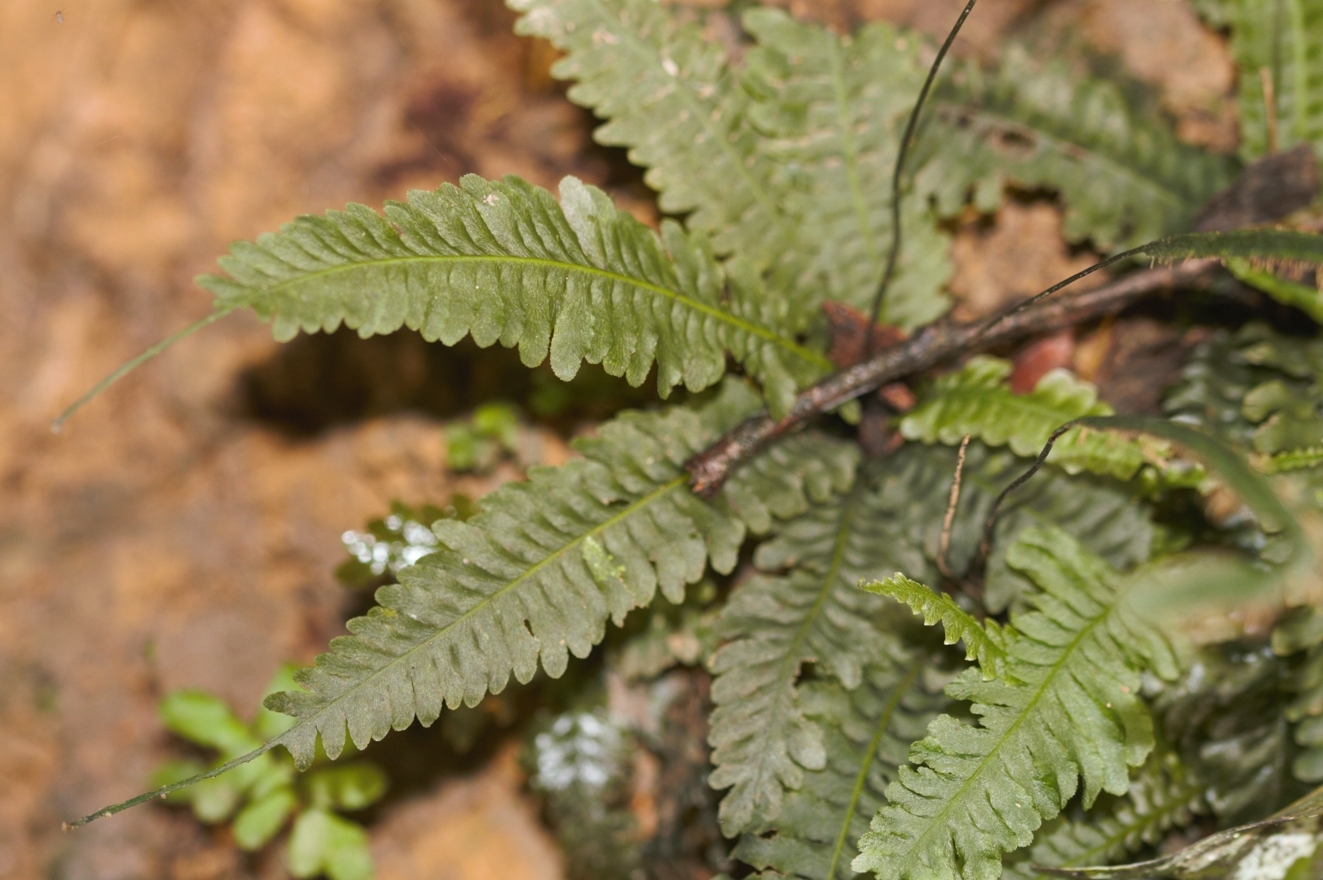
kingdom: Plantae
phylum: Tracheophyta
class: Polypodiopsida
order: Hymenophyllales
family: Hymenophyllaceae
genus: Trichomanes
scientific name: Trichomanes diversifrons
